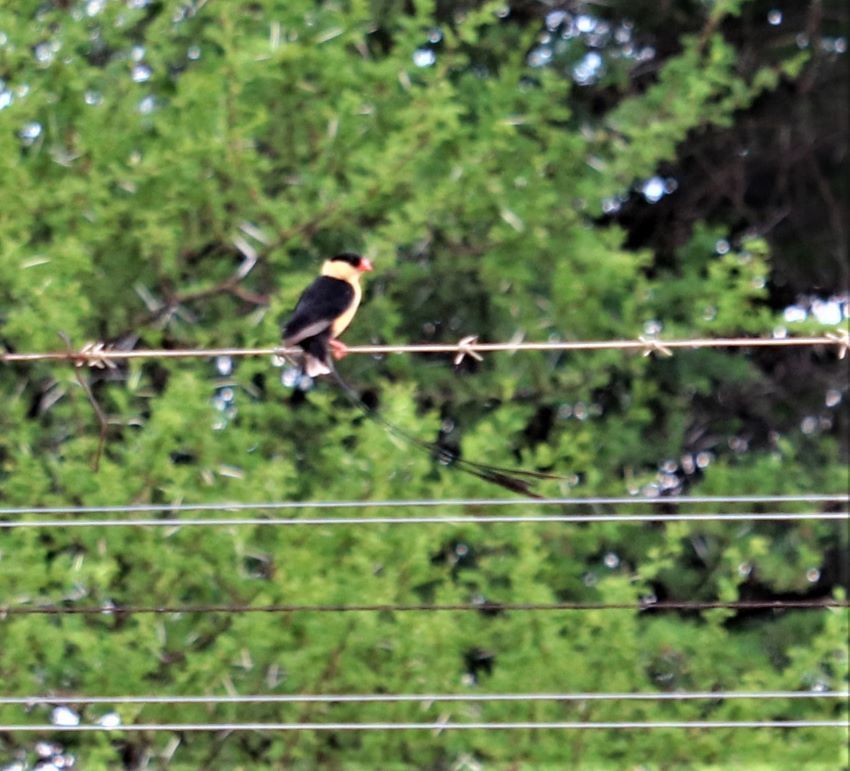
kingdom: Animalia
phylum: Chordata
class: Aves
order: Passeriformes
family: Viduidae
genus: Vidua
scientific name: Vidua regia
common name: Shaft-tailed whydah
